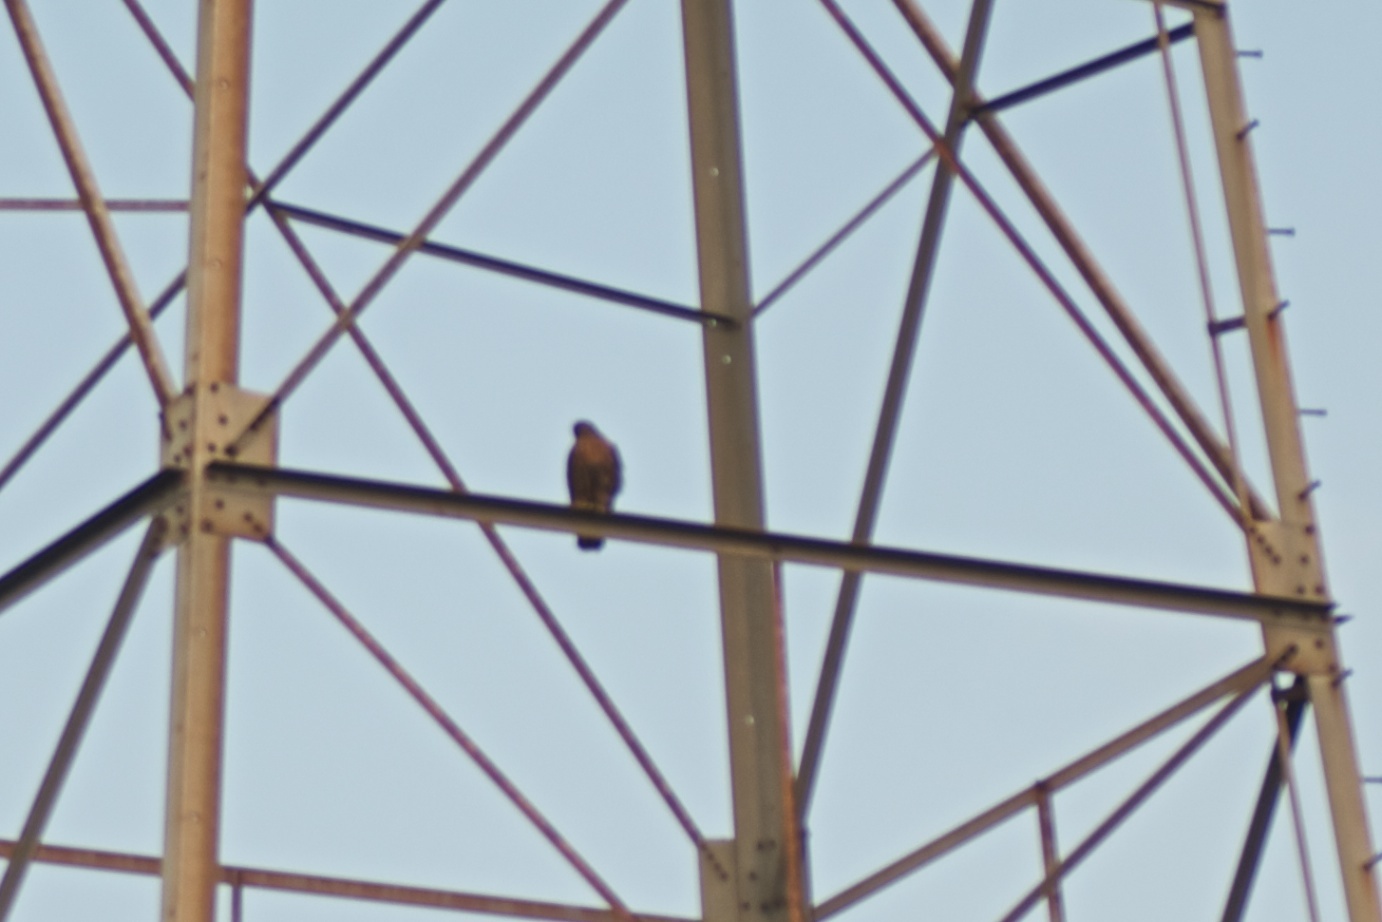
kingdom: Animalia
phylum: Chordata
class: Aves
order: Accipitriformes
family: Accipitridae
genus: Buteo
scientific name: Buteo jamaicensis
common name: Red-tailed hawk
